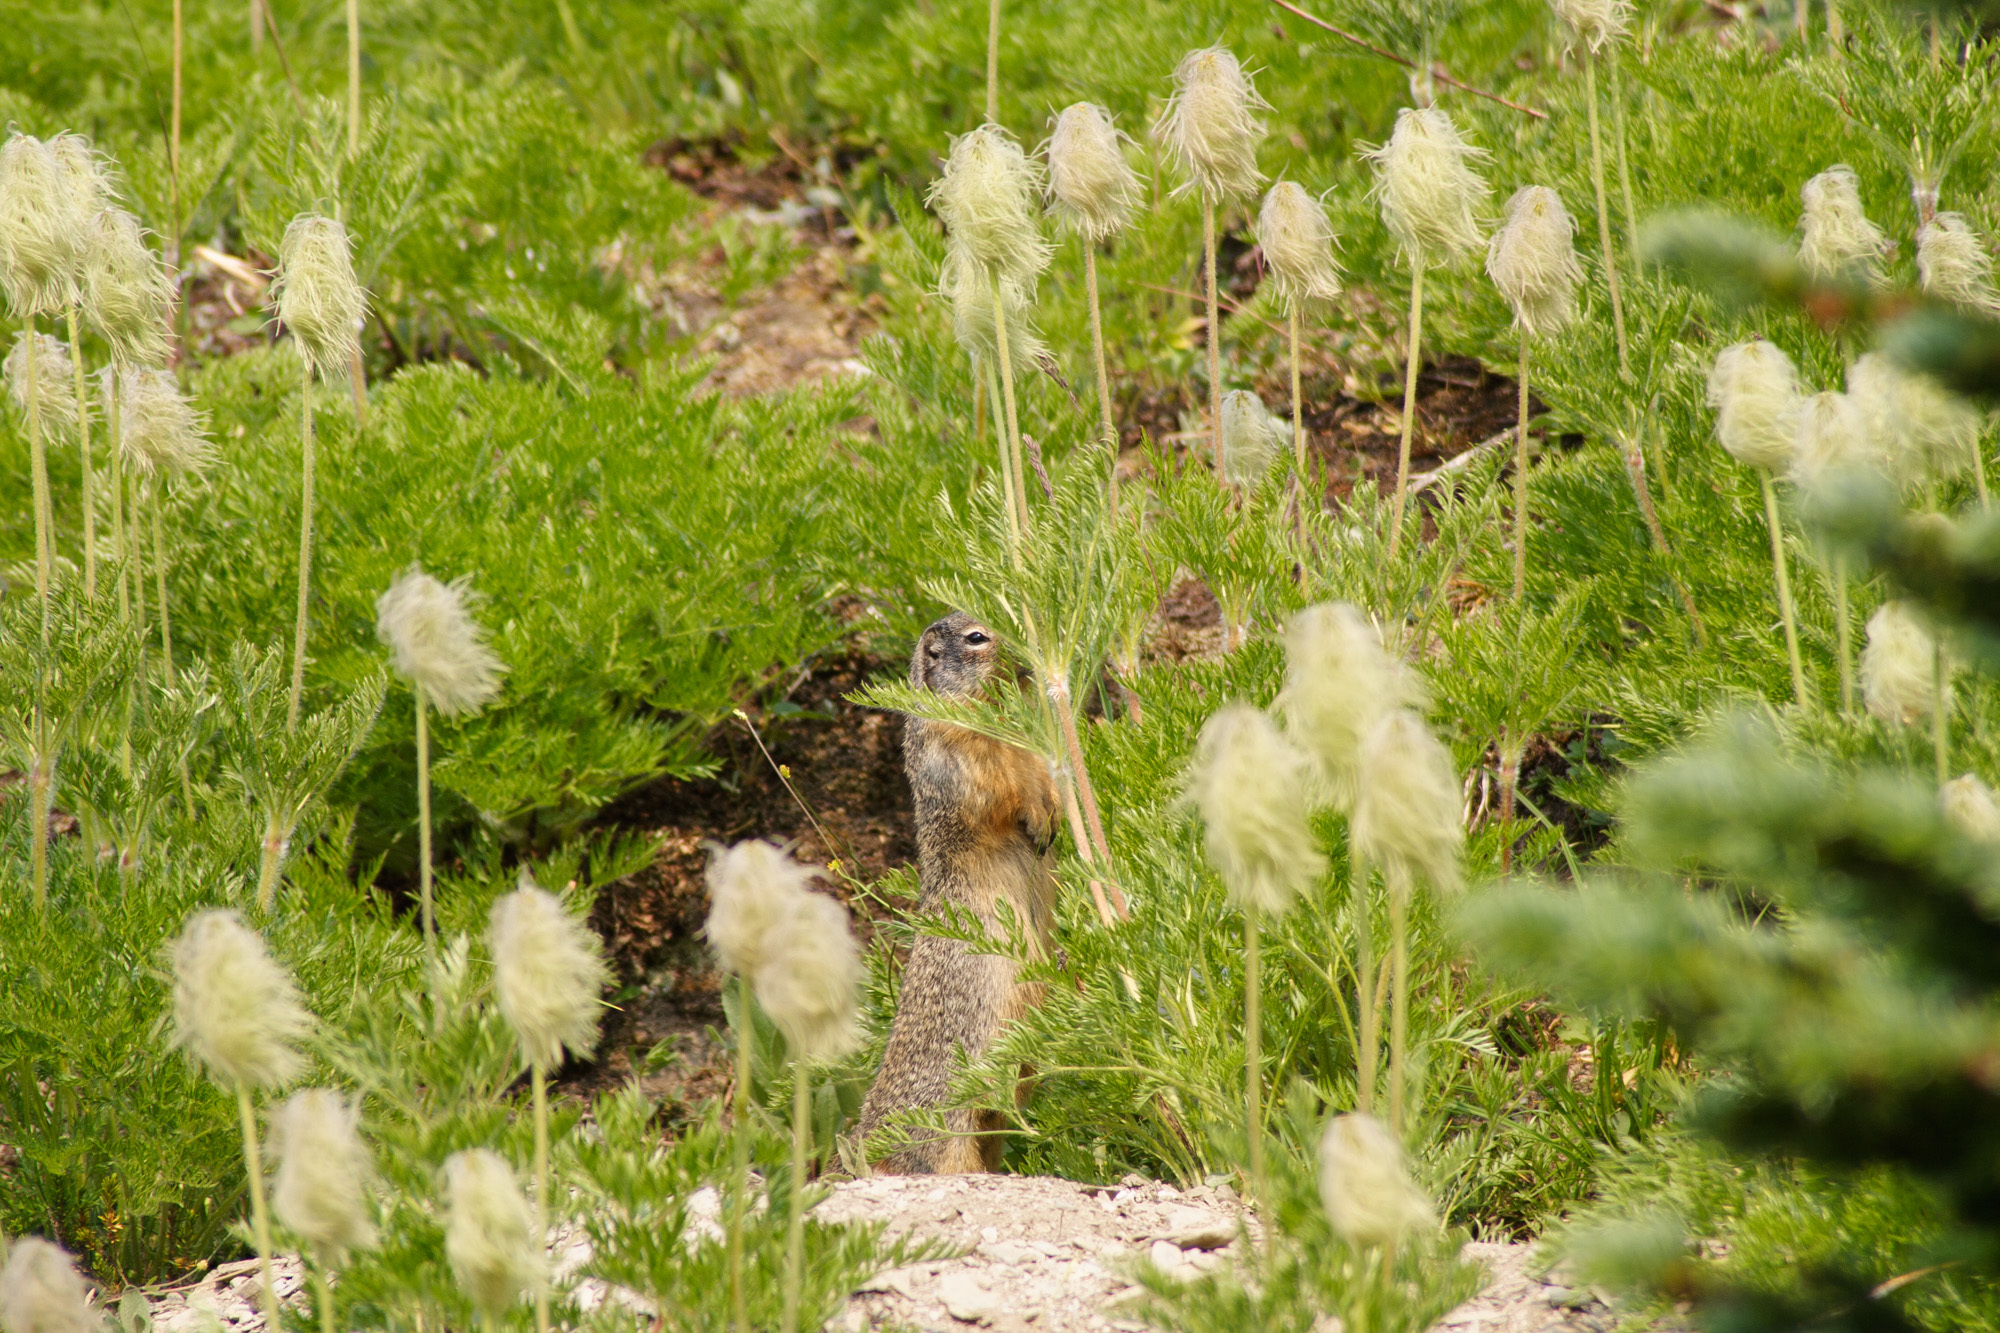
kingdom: Animalia
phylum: Chordata
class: Mammalia
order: Rodentia
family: Sciuridae
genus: Urocitellus
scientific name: Urocitellus columbianus
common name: Columbian ground squirrel
